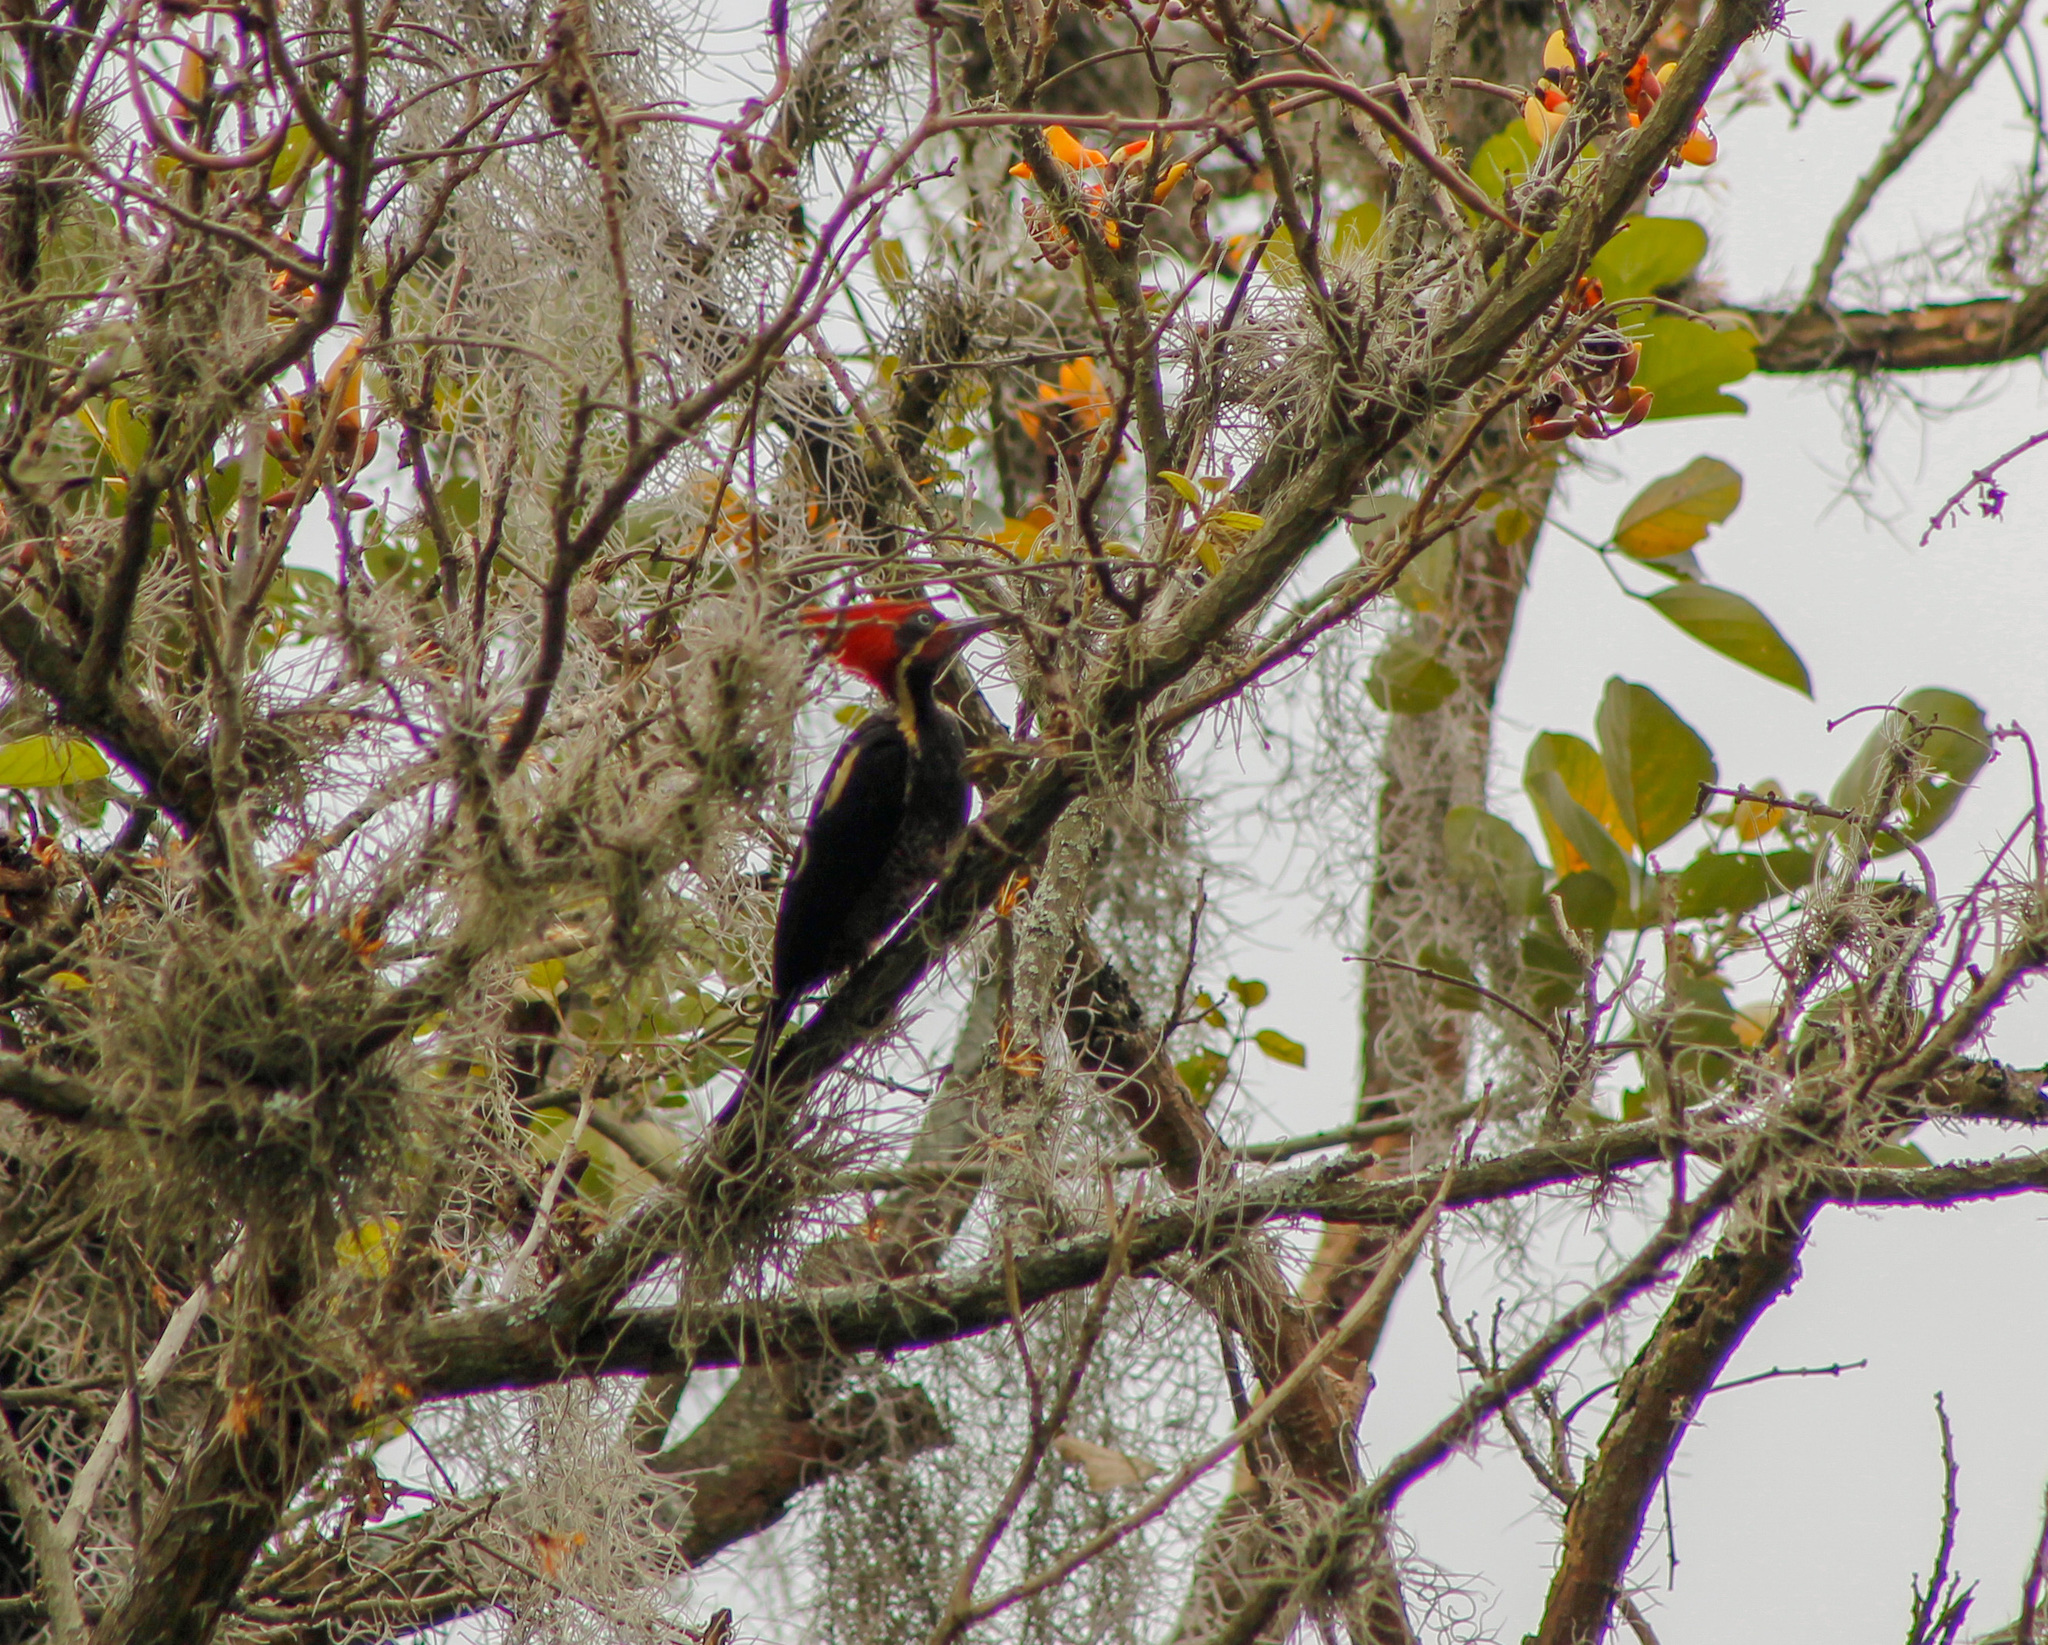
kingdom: Animalia
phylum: Chordata
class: Aves
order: Piciformes
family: Picidae
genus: Dryocopus
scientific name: Dryocopus lineatus
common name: Lineated woodpecker
